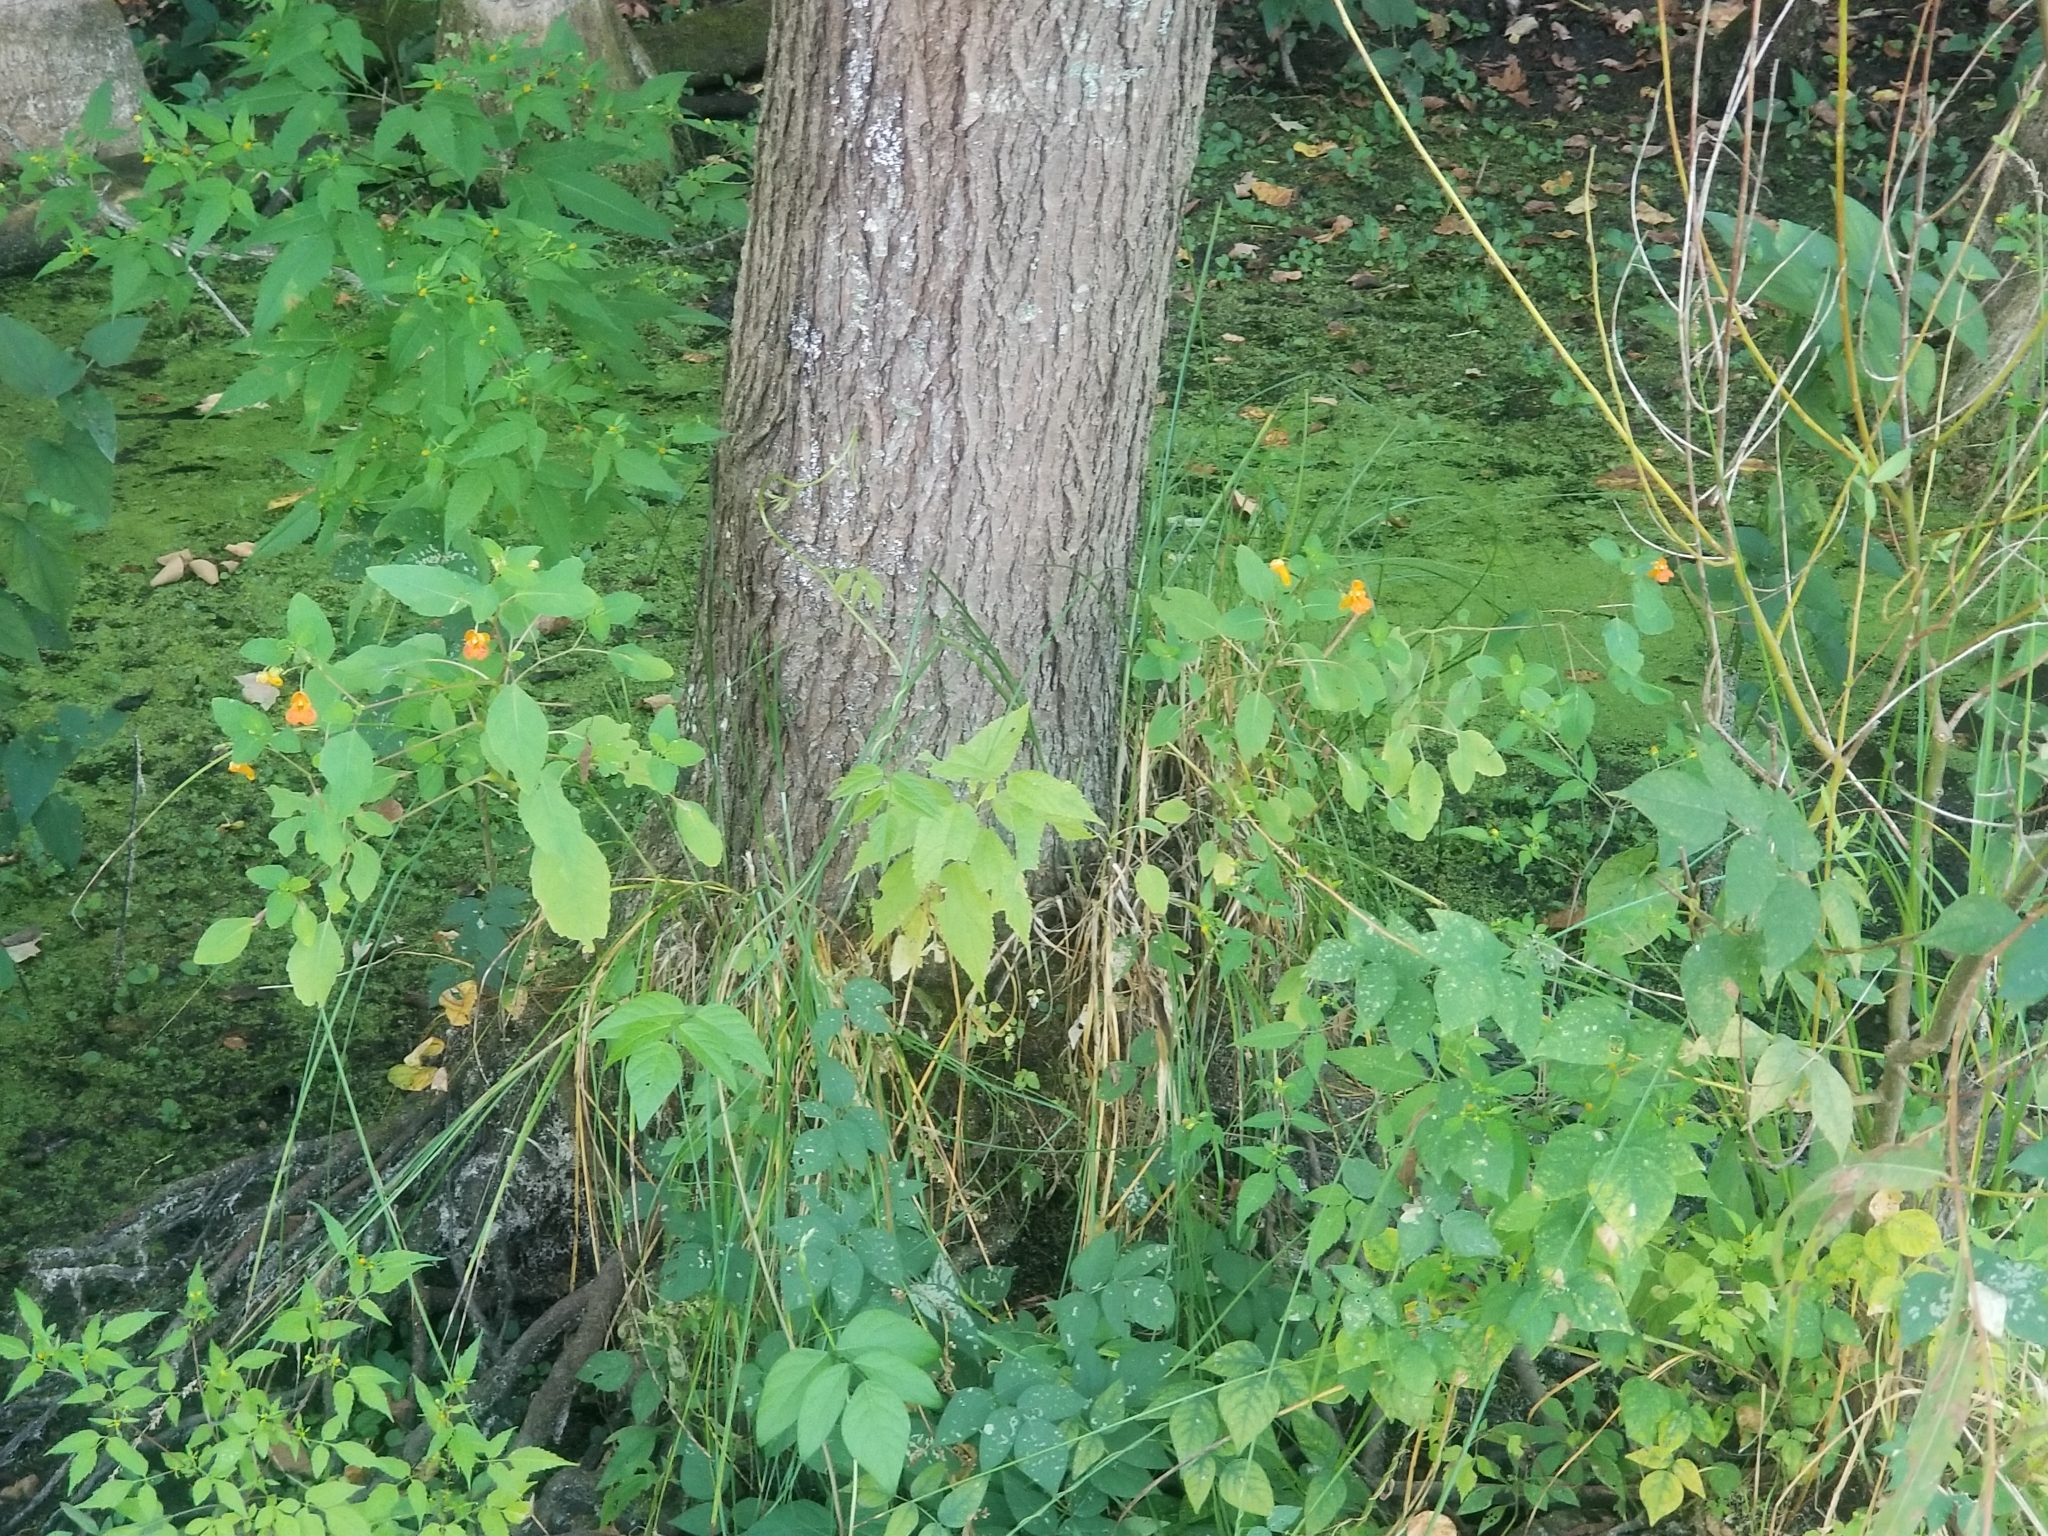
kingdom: Plantae
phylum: Tracheophyta
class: Magnoliopsida
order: Ericales
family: Balsaminaceae
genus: Impatiens
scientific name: Impatiens capensis
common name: Orange balsam
